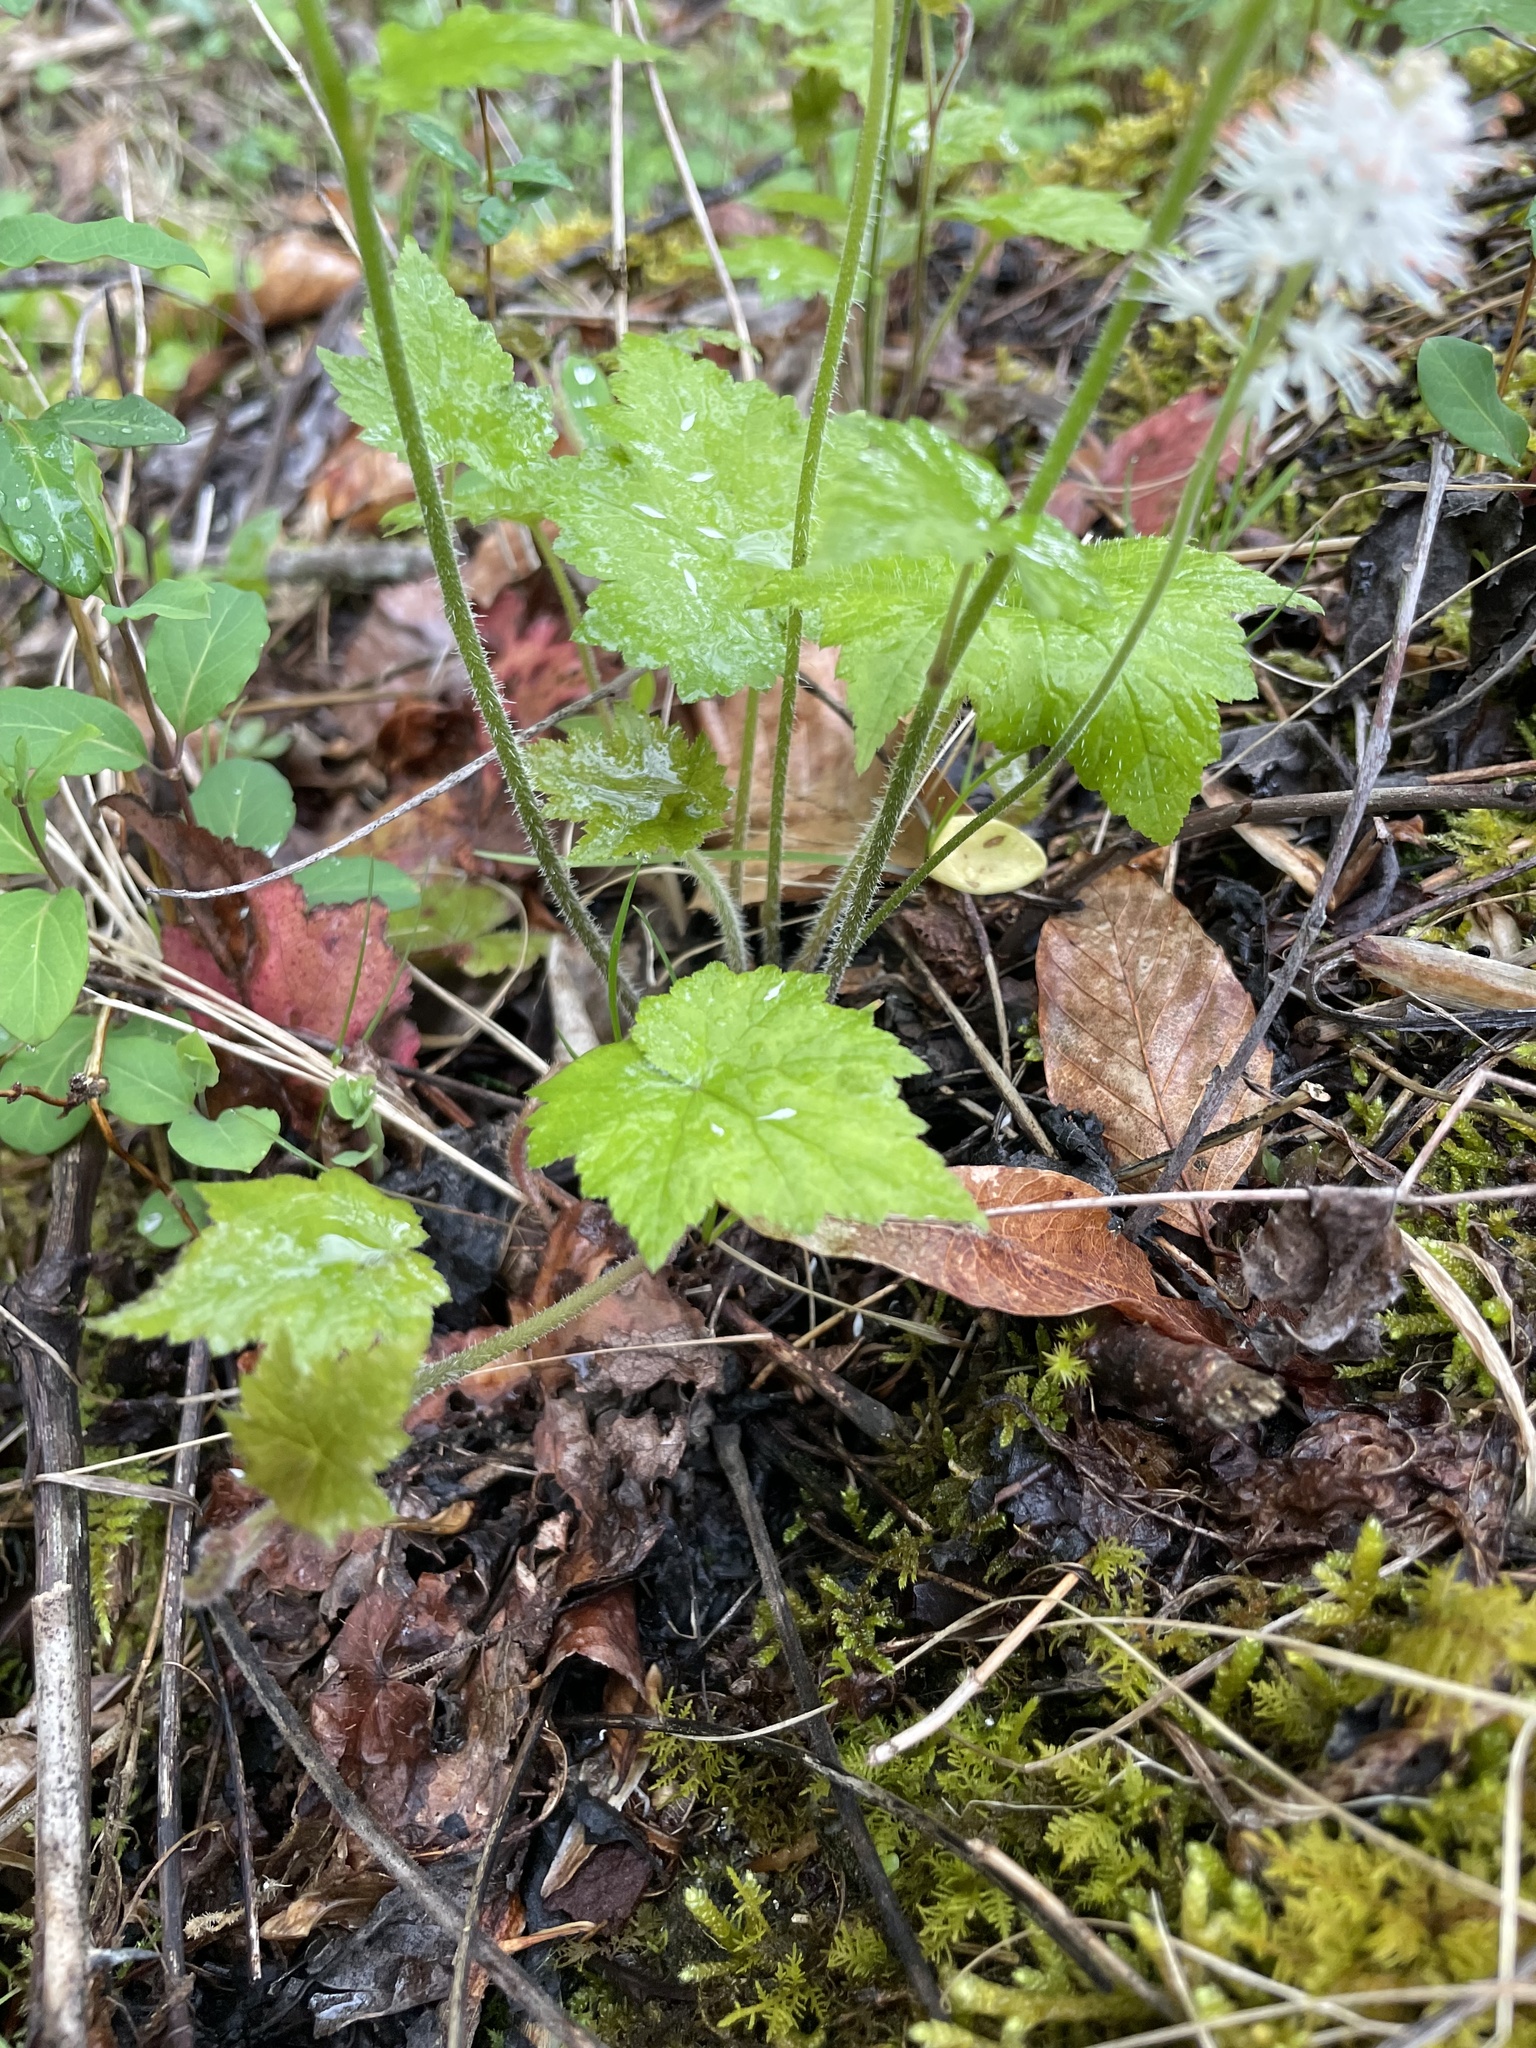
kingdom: Plantae
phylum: Tracheophyta
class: Magnoliopsida
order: Saxifragales
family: Saxifragaceae
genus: Tiarella
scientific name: Tiarella austrina
